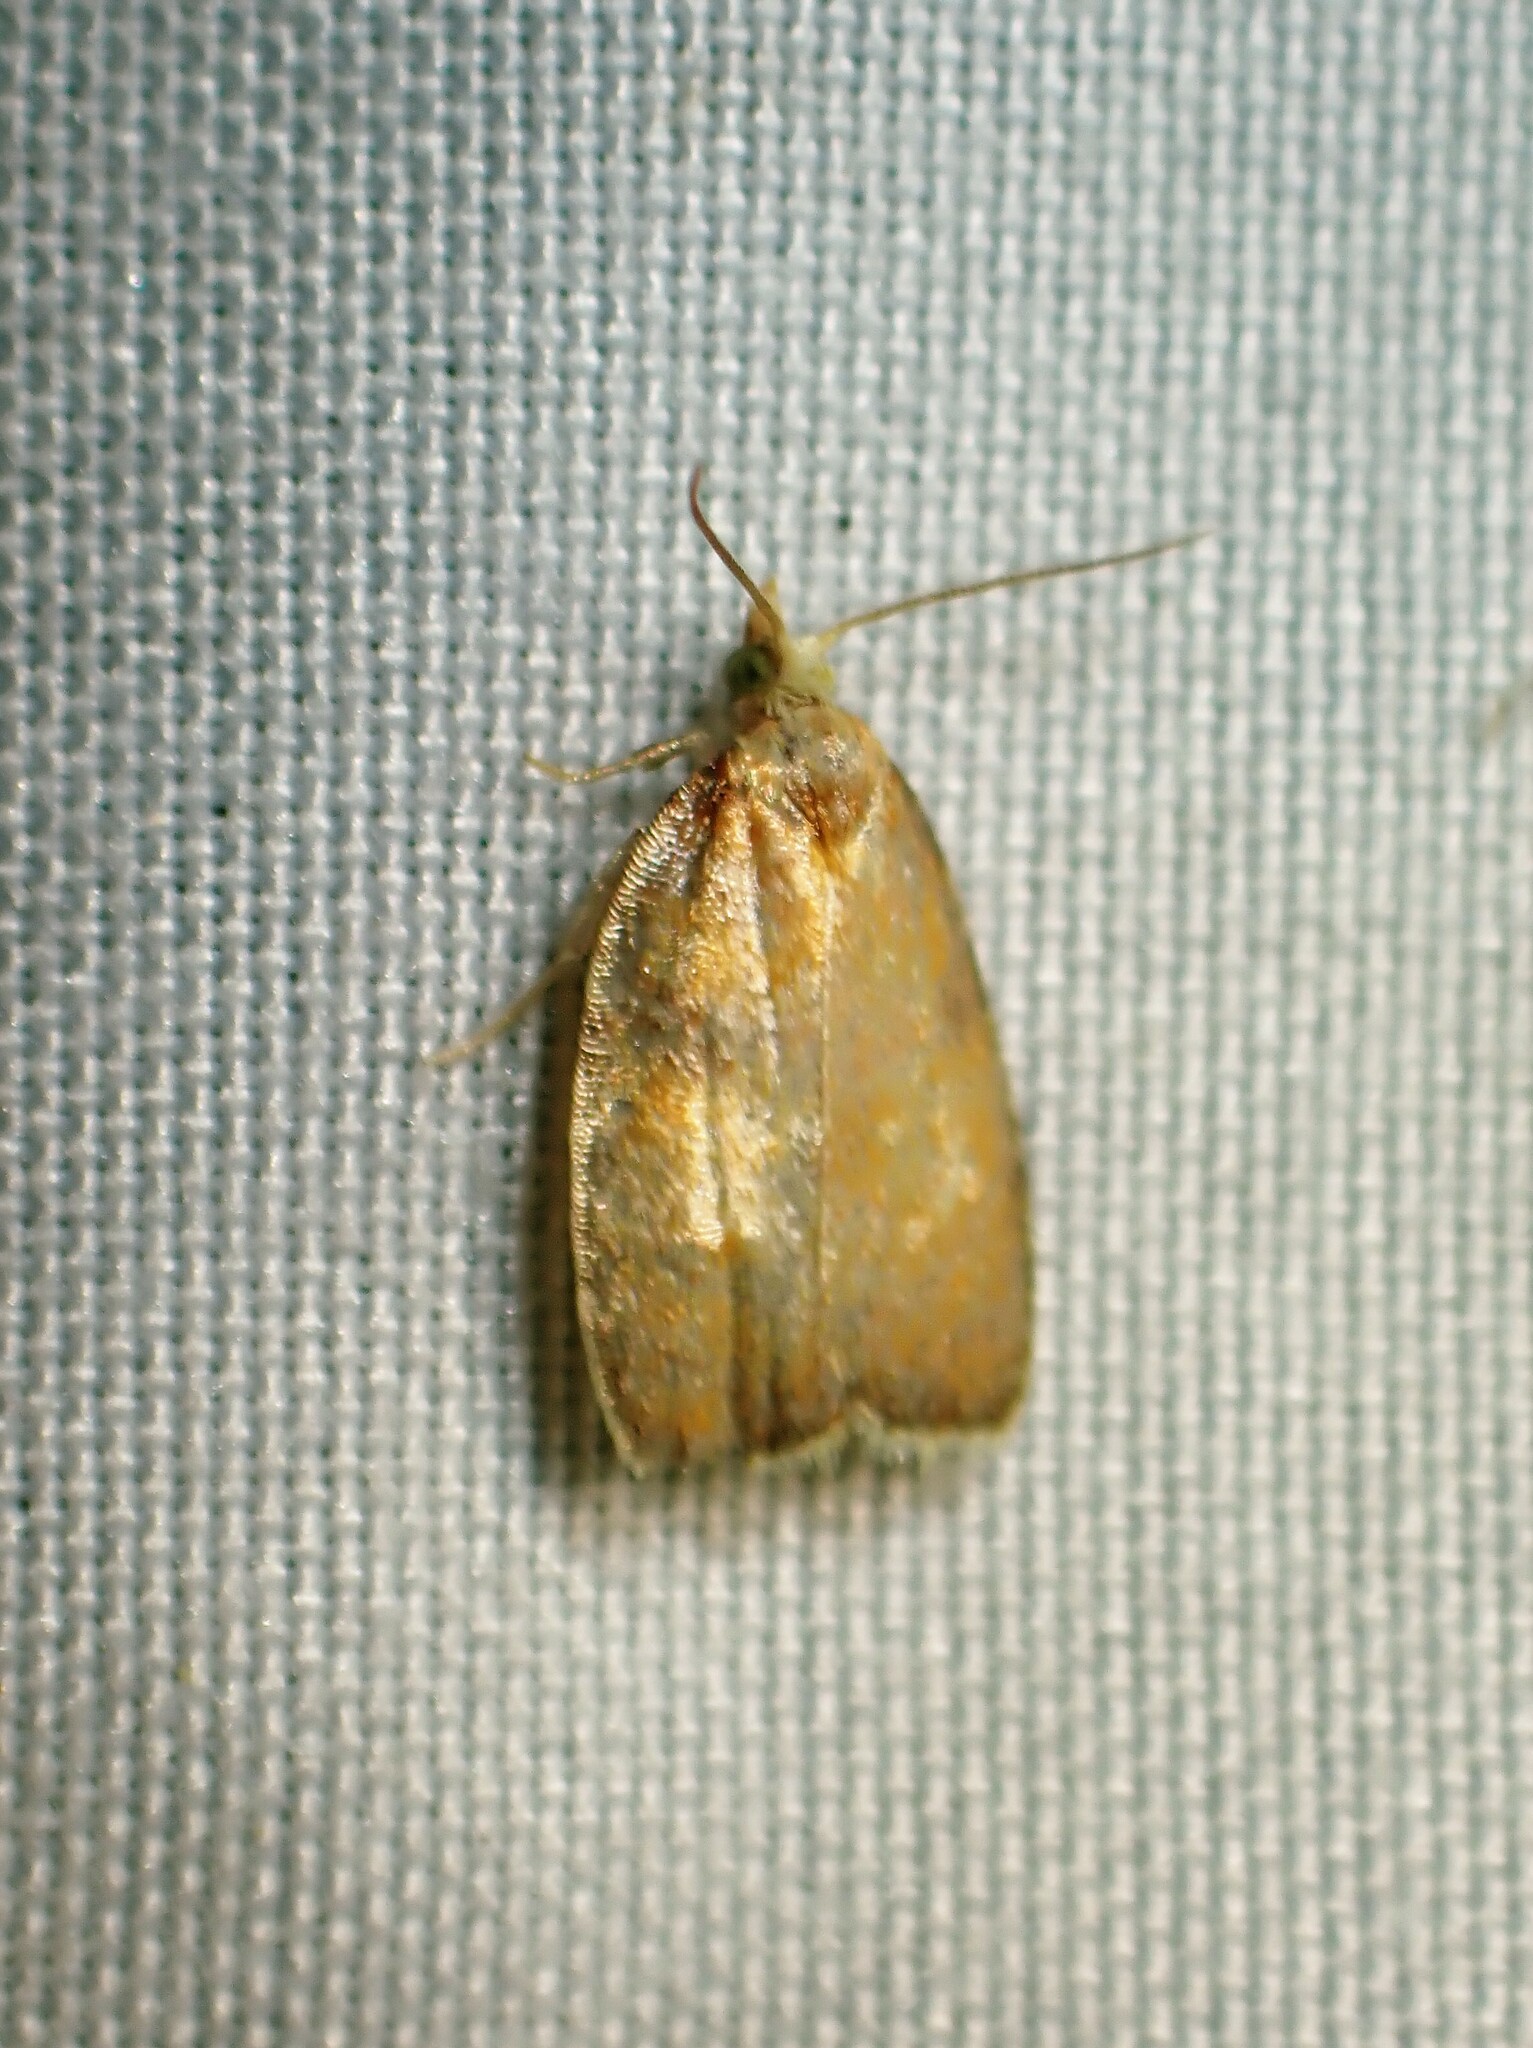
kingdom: Animalia
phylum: Arthropoda
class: Insecta
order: Lepidoptera
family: Tortricidae
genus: Acleris
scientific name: Acleris curvalana
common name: Blueberry leaftier moth
